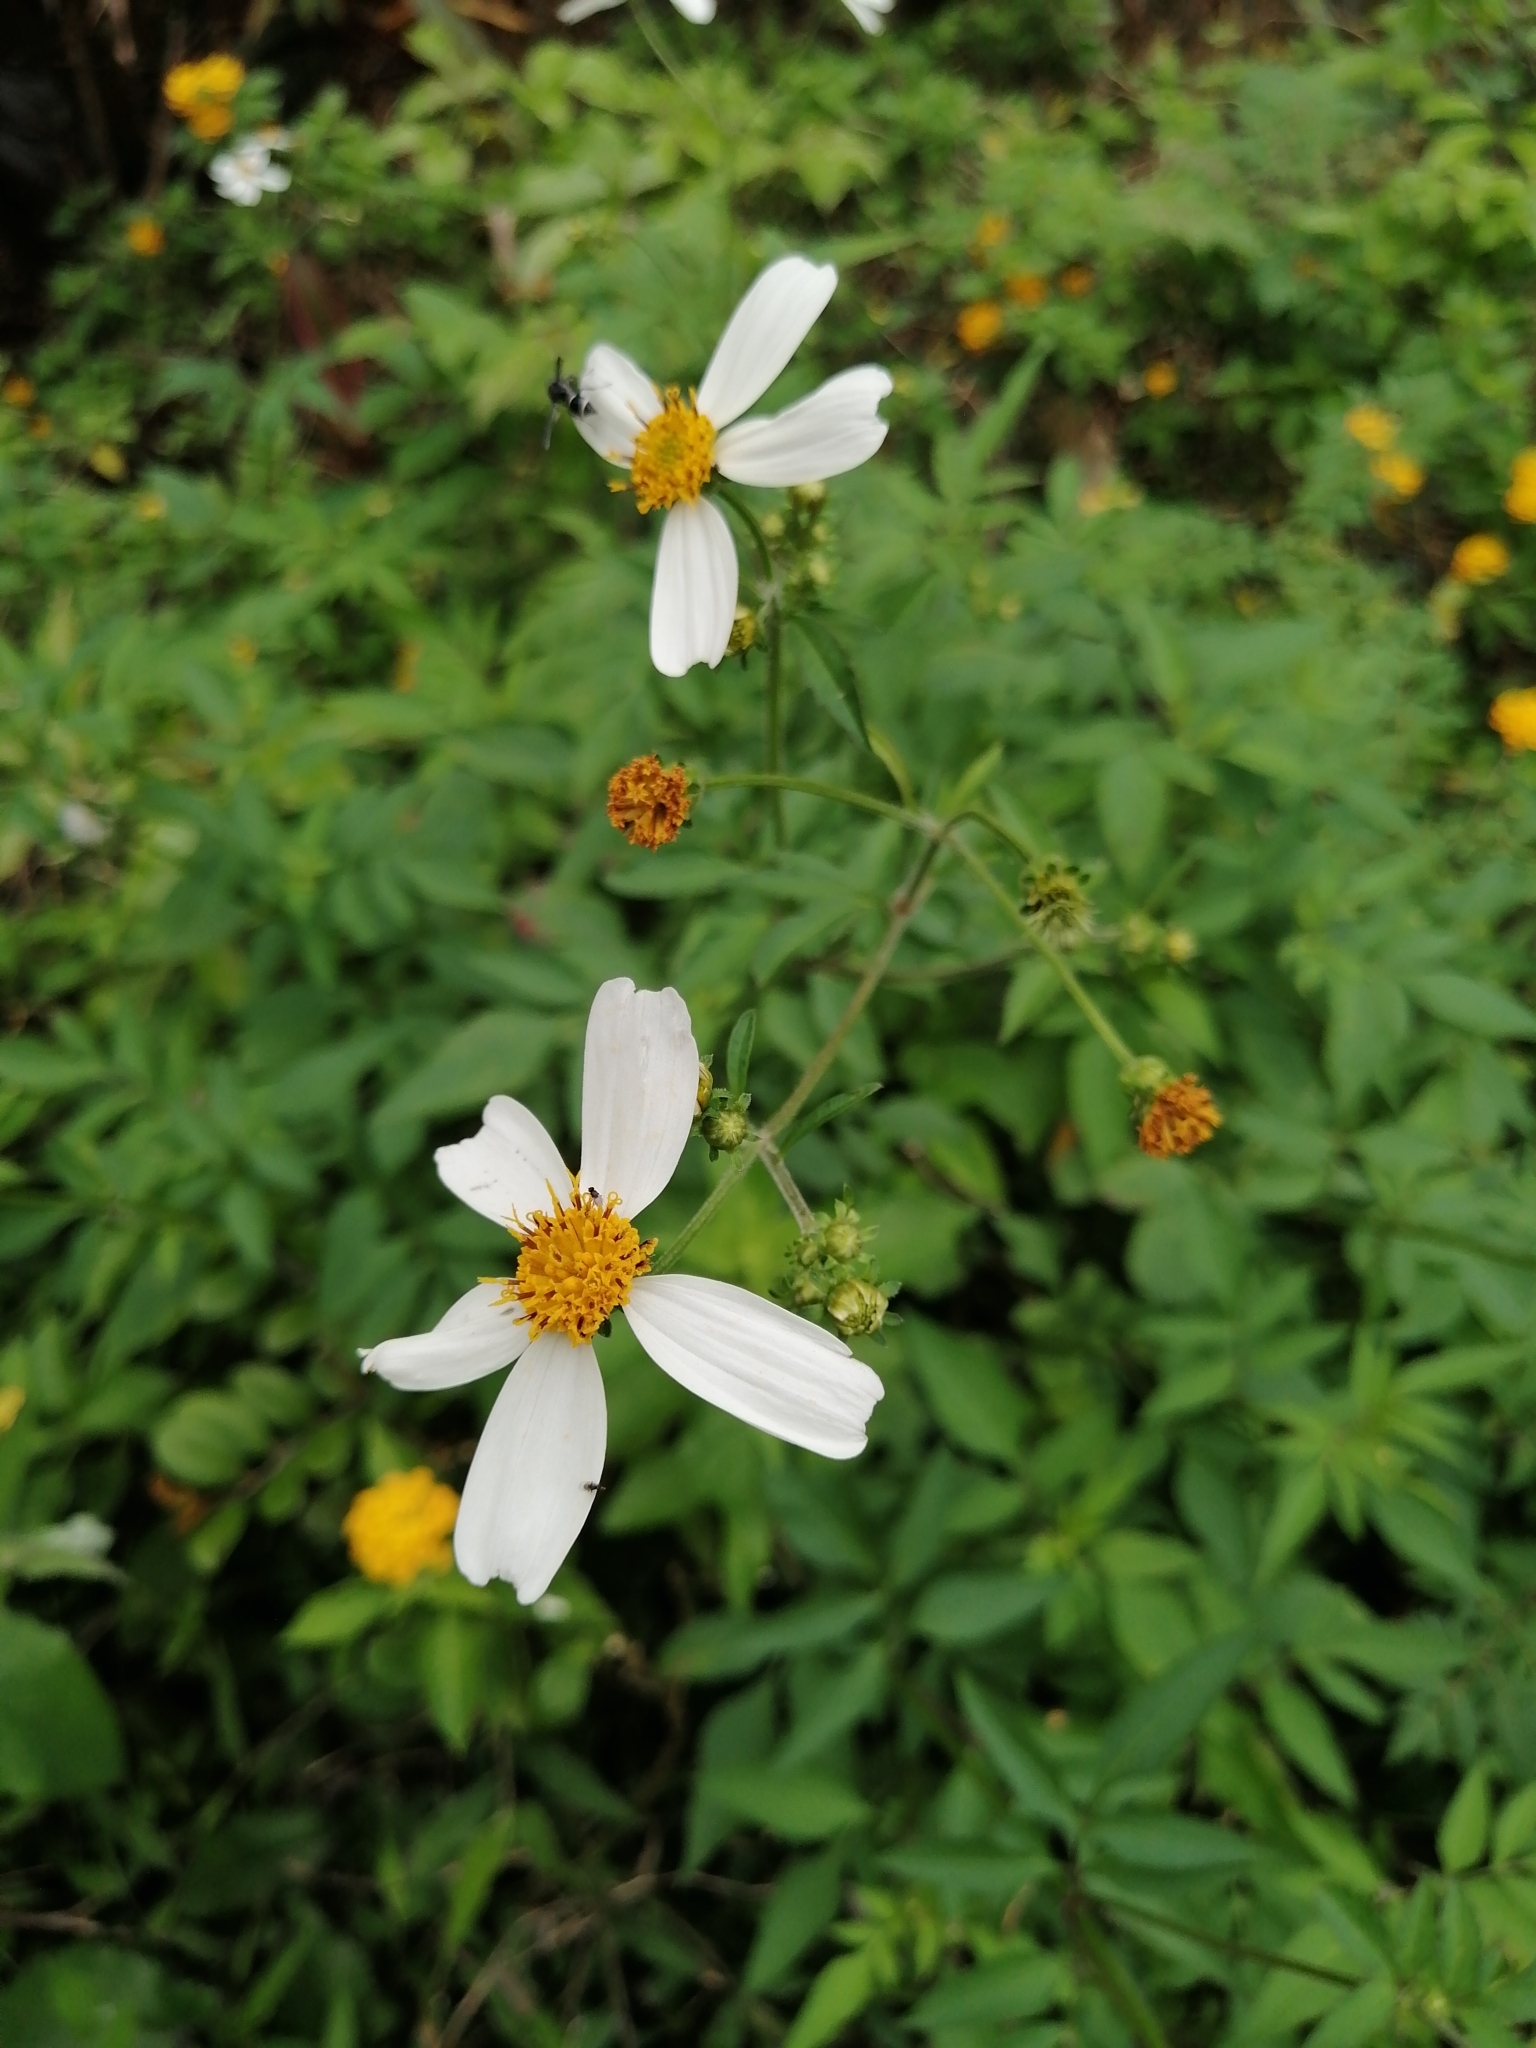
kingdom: Plantae
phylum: Tracheophyta
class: Magnoliopsida
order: Asterales
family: Asteraceae
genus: Bidens
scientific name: Bidens alba
